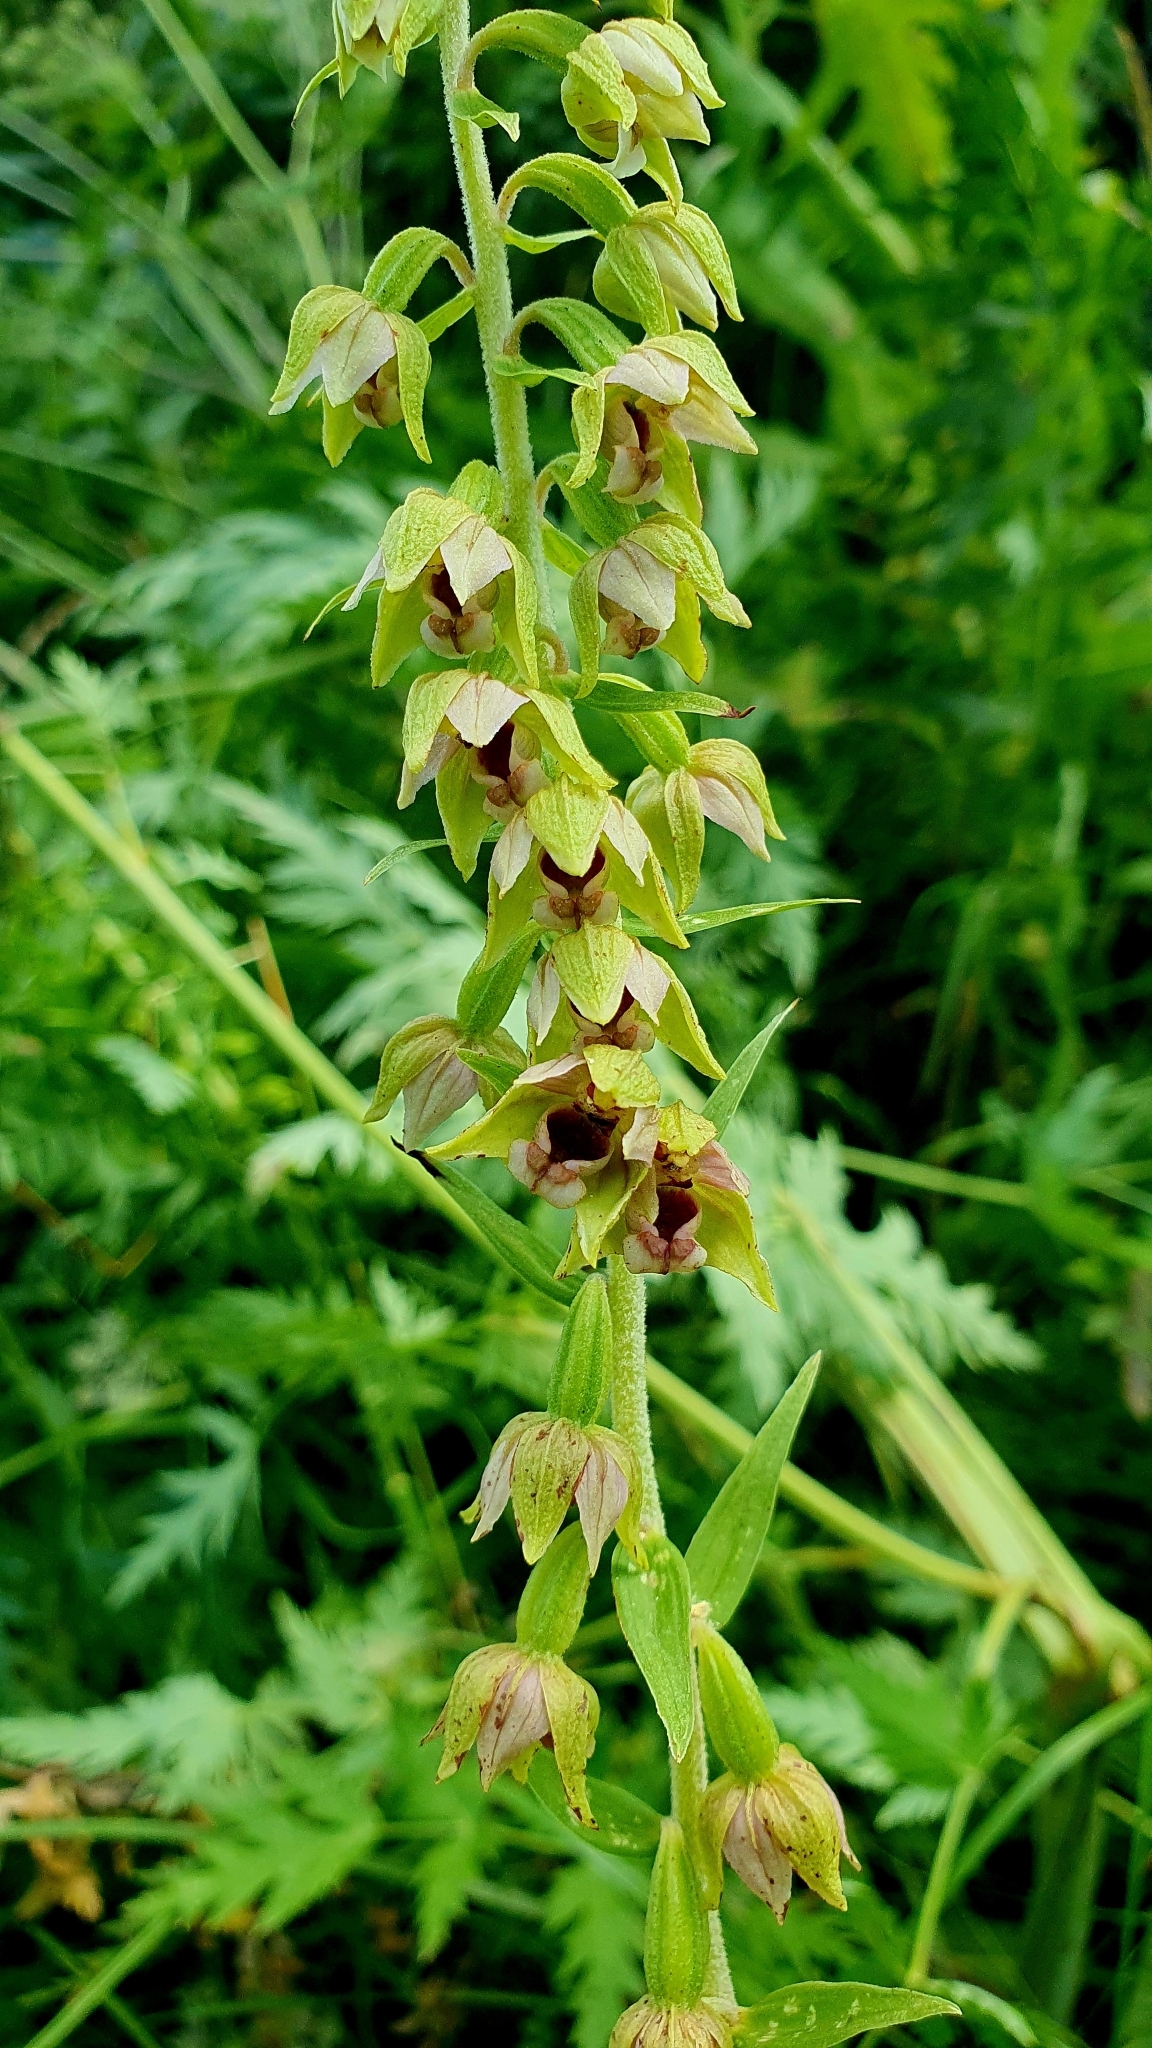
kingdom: Plantae
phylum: Tracheophyta
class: Liliopsida
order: Asparagales
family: Orchidaceae
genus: Epipactis
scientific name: Epipactis helleborine
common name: Broad-leaved helleborine
